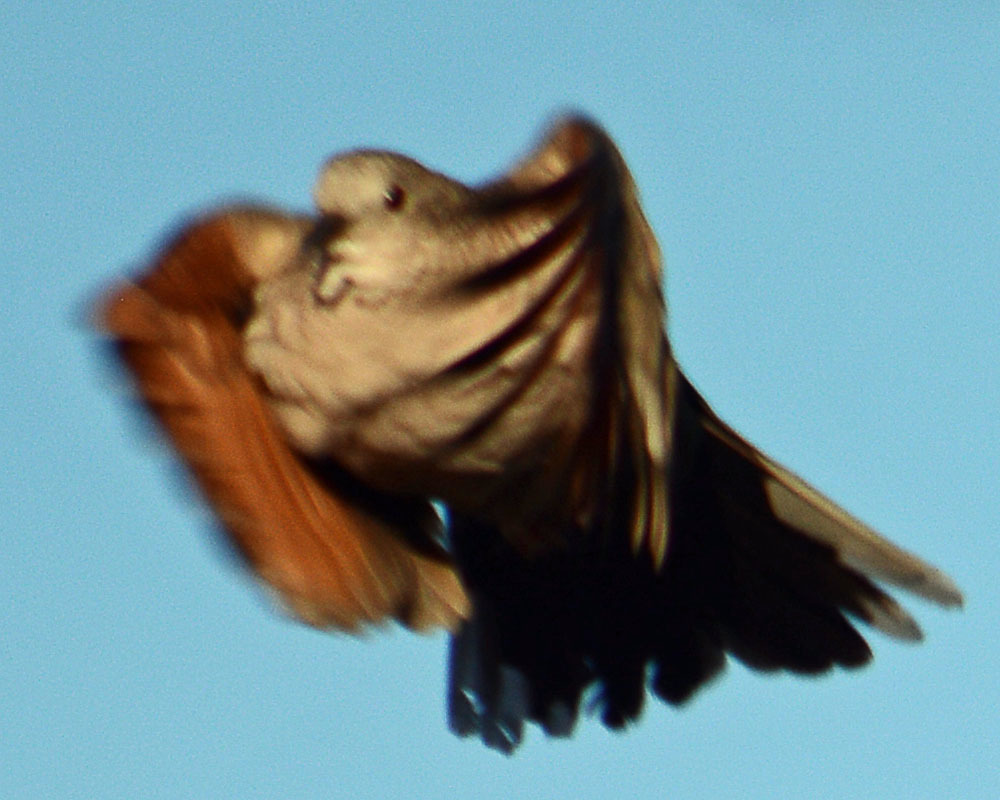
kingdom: Animalia
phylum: Chordata
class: Aves
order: Columbiformes
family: Columbidae
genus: Columbina
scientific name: Columbina inca
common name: Inca dove
